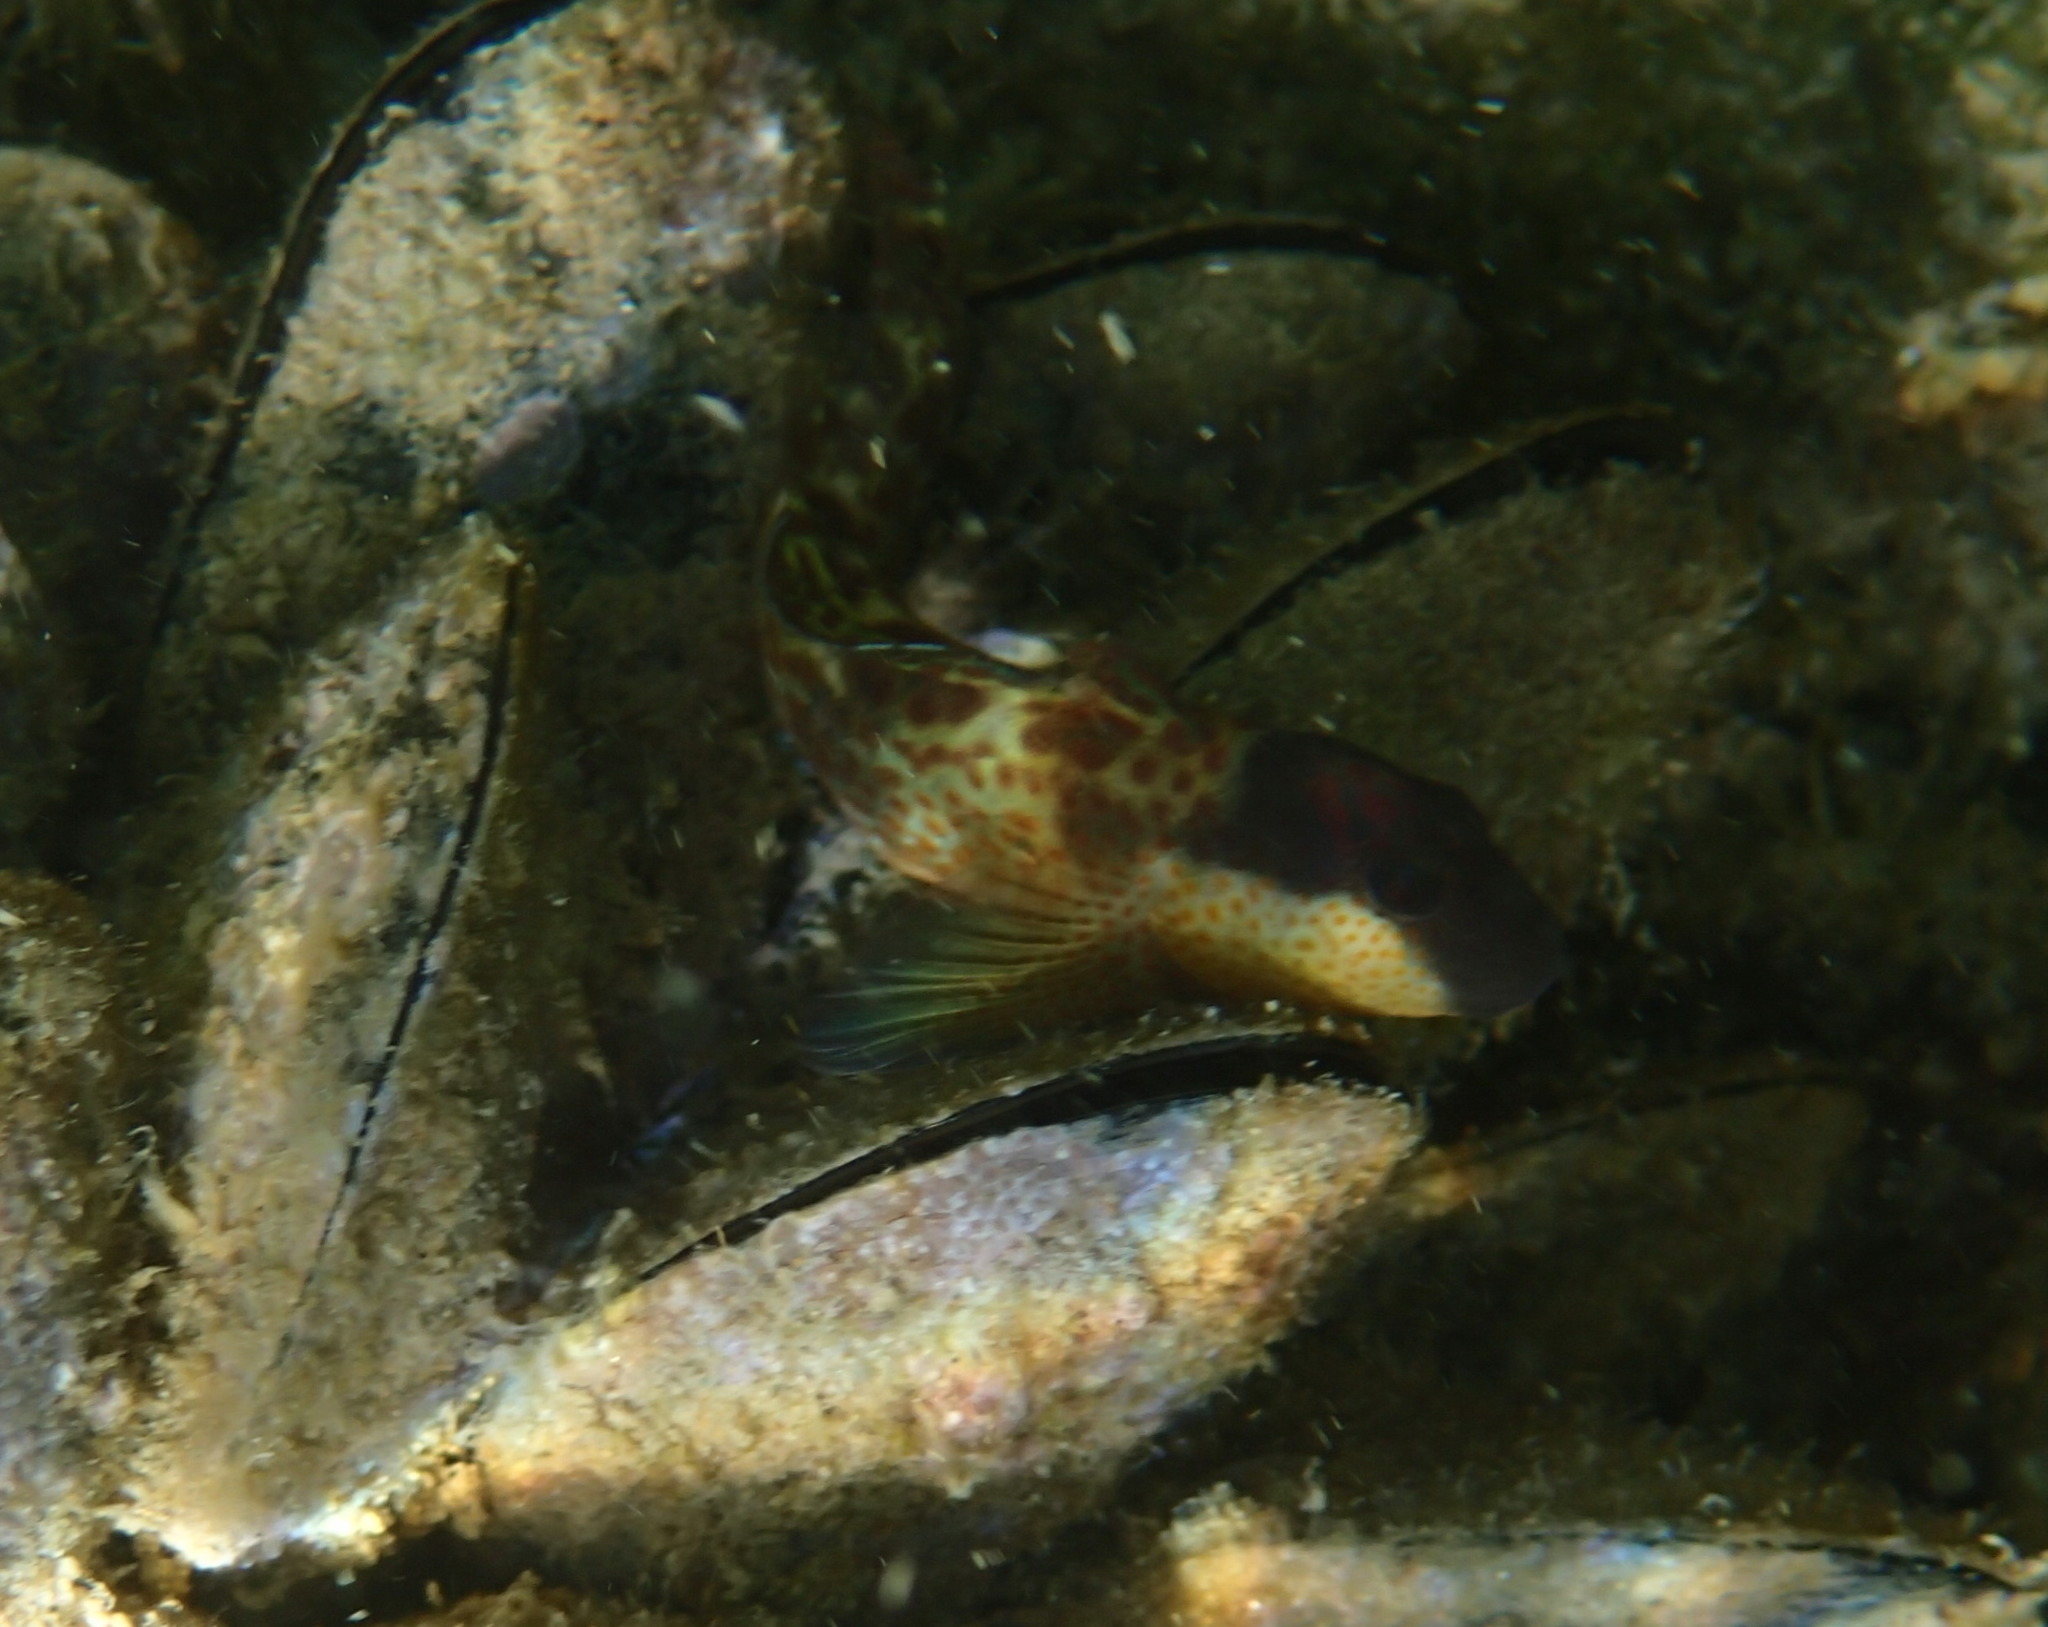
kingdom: Animalia
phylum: Chordata
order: Perciformes
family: Blenniidae
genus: Microlipophrys
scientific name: Microlipophrys canevae
